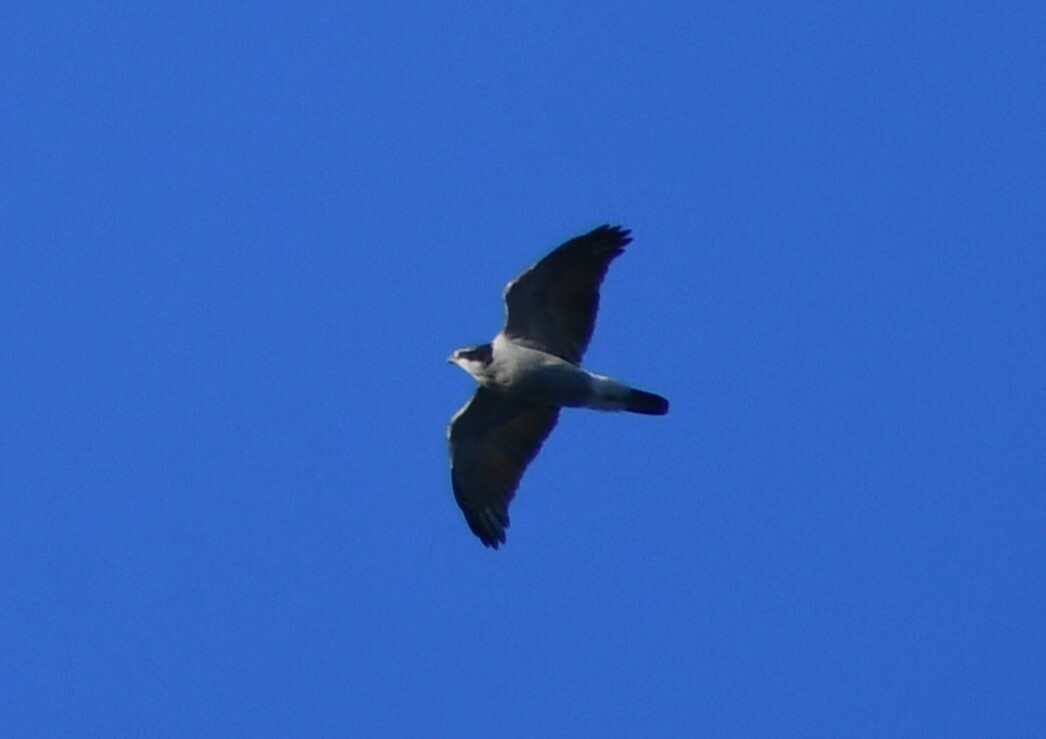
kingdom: Animalia
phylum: Chordata
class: Aves
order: Accipitriformes
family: Accipitridae
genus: Accipiter
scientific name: Accipiter gentilis
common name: Northern goshawk
